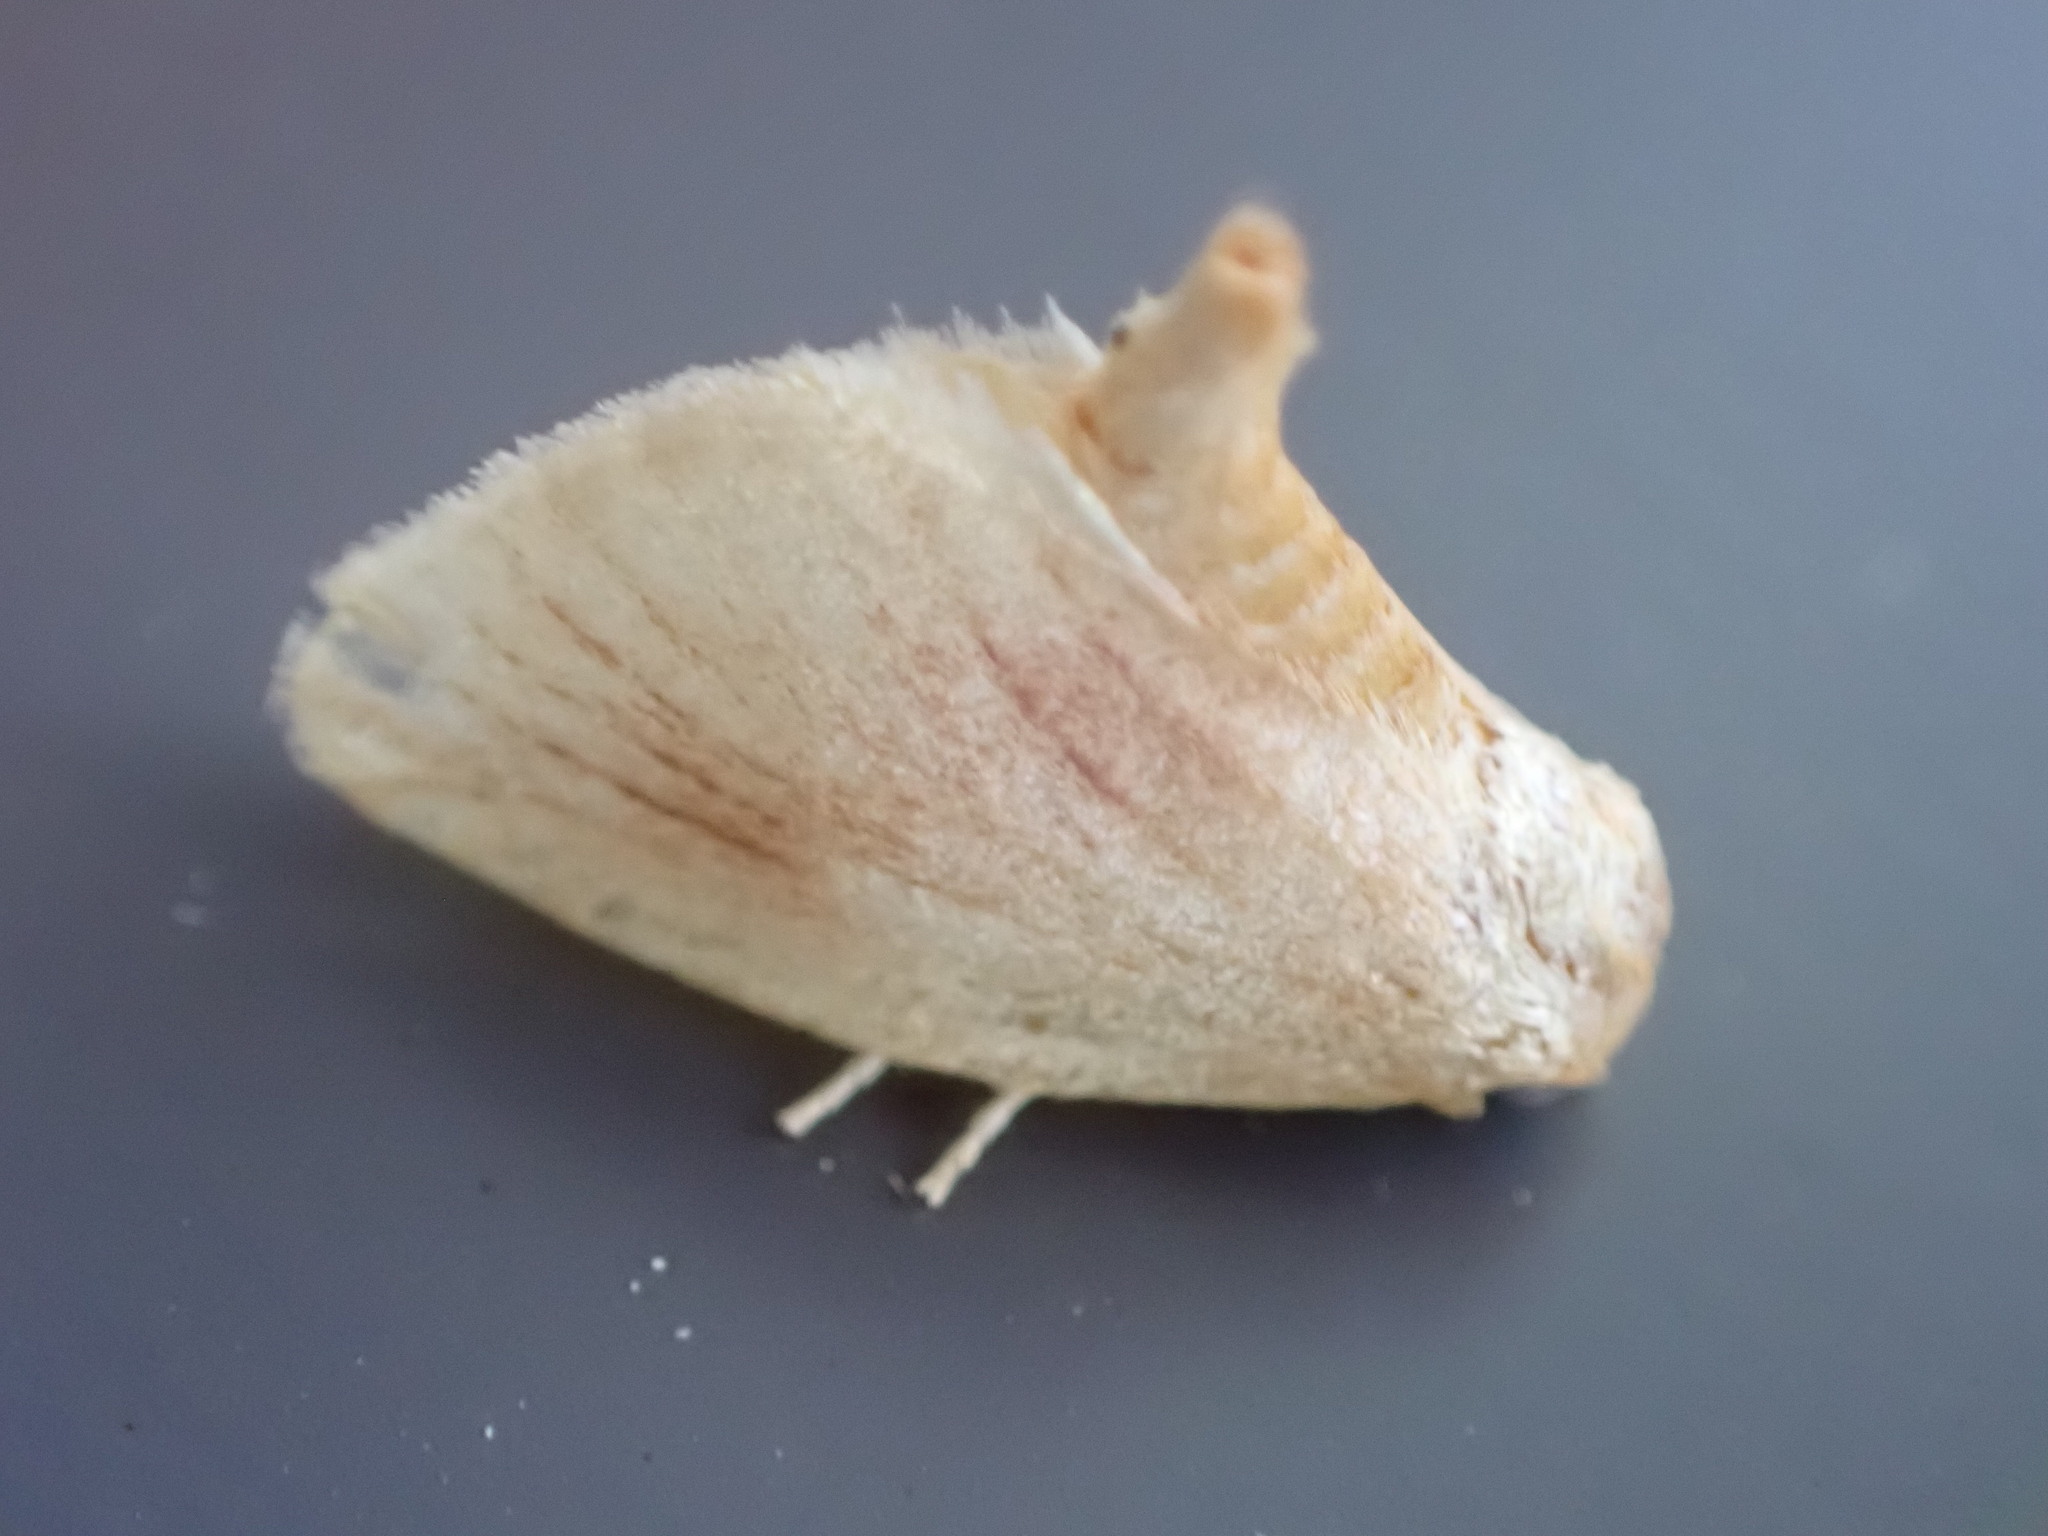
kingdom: Animalia
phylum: Arthropoda
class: Insecta
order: Lepidoptera
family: Limacodidae
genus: Tortricidia
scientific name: Tortricidia testacea
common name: Early button slug moth
